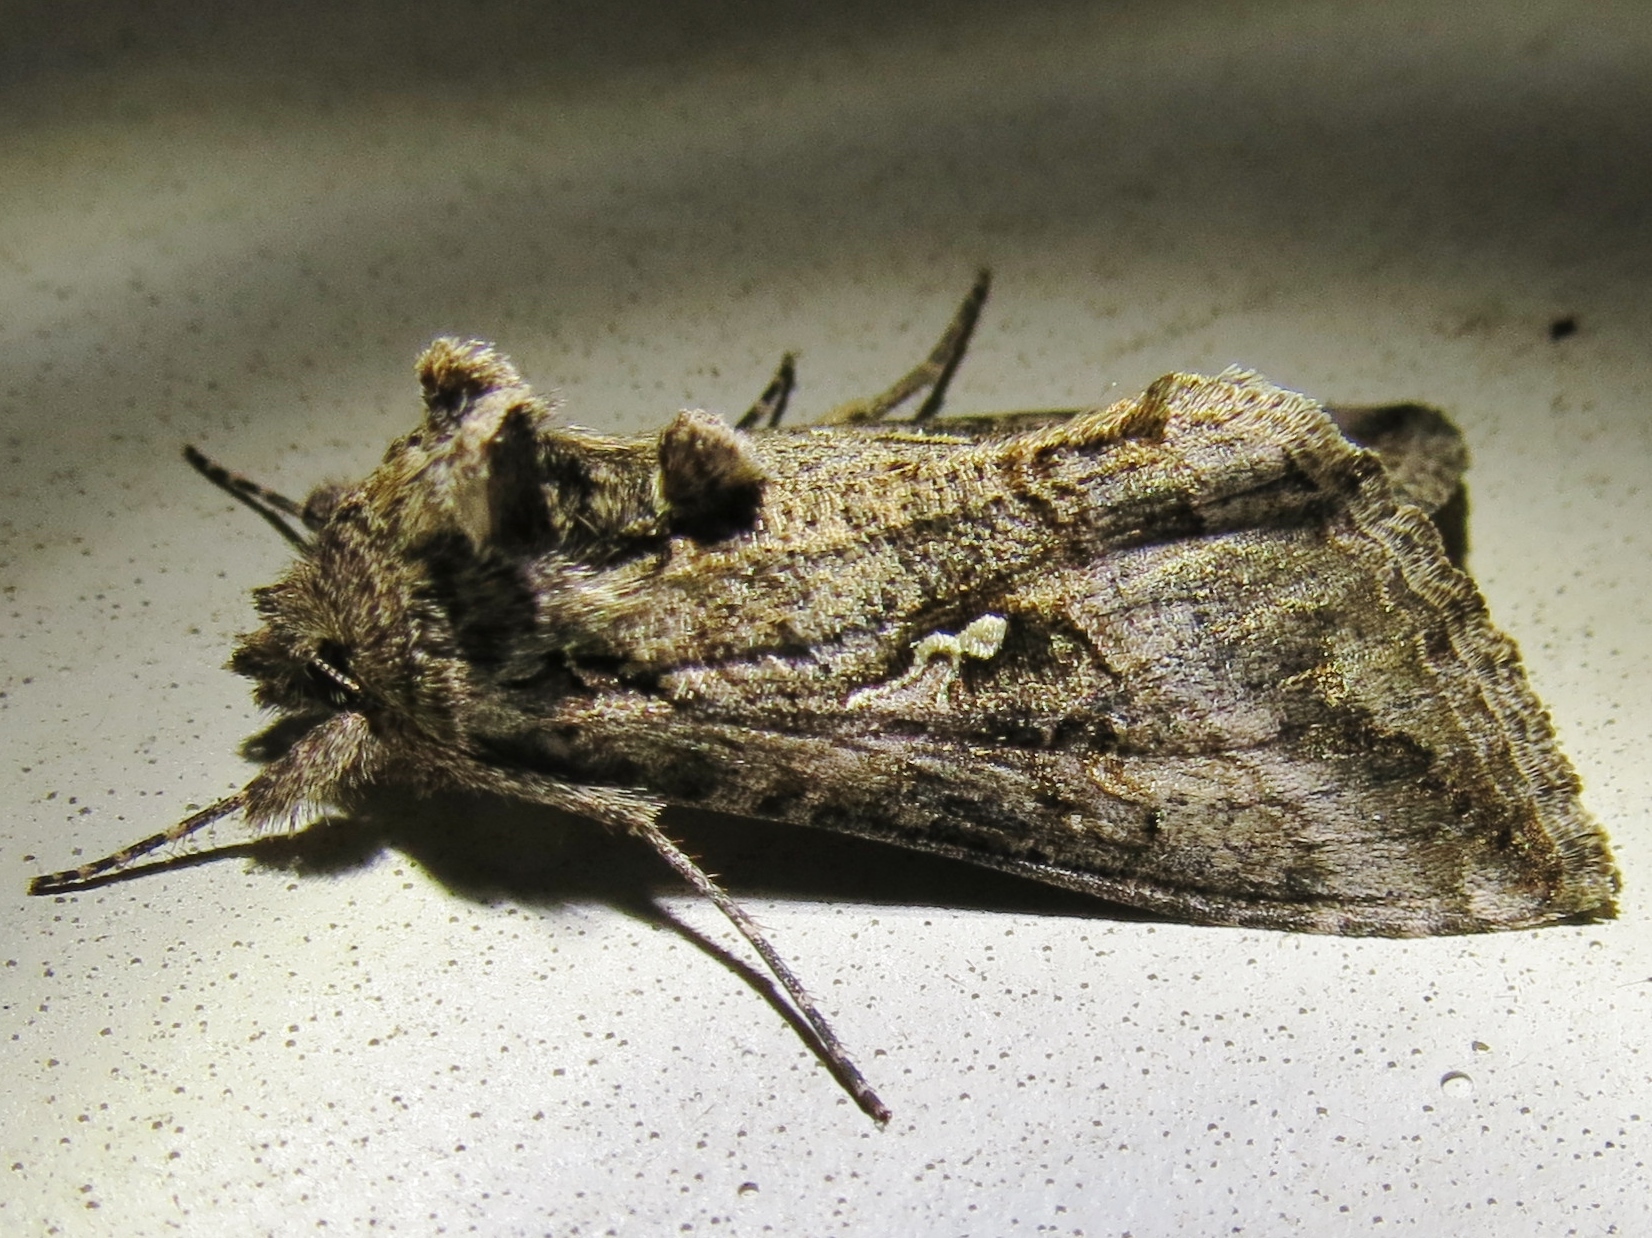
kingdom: Animalia
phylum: Arthropoda
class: Insecta
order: Lepidoptera
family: Noctuidae
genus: Rachiplusia
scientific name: Rachiplusia ou
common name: Gray looper moth
